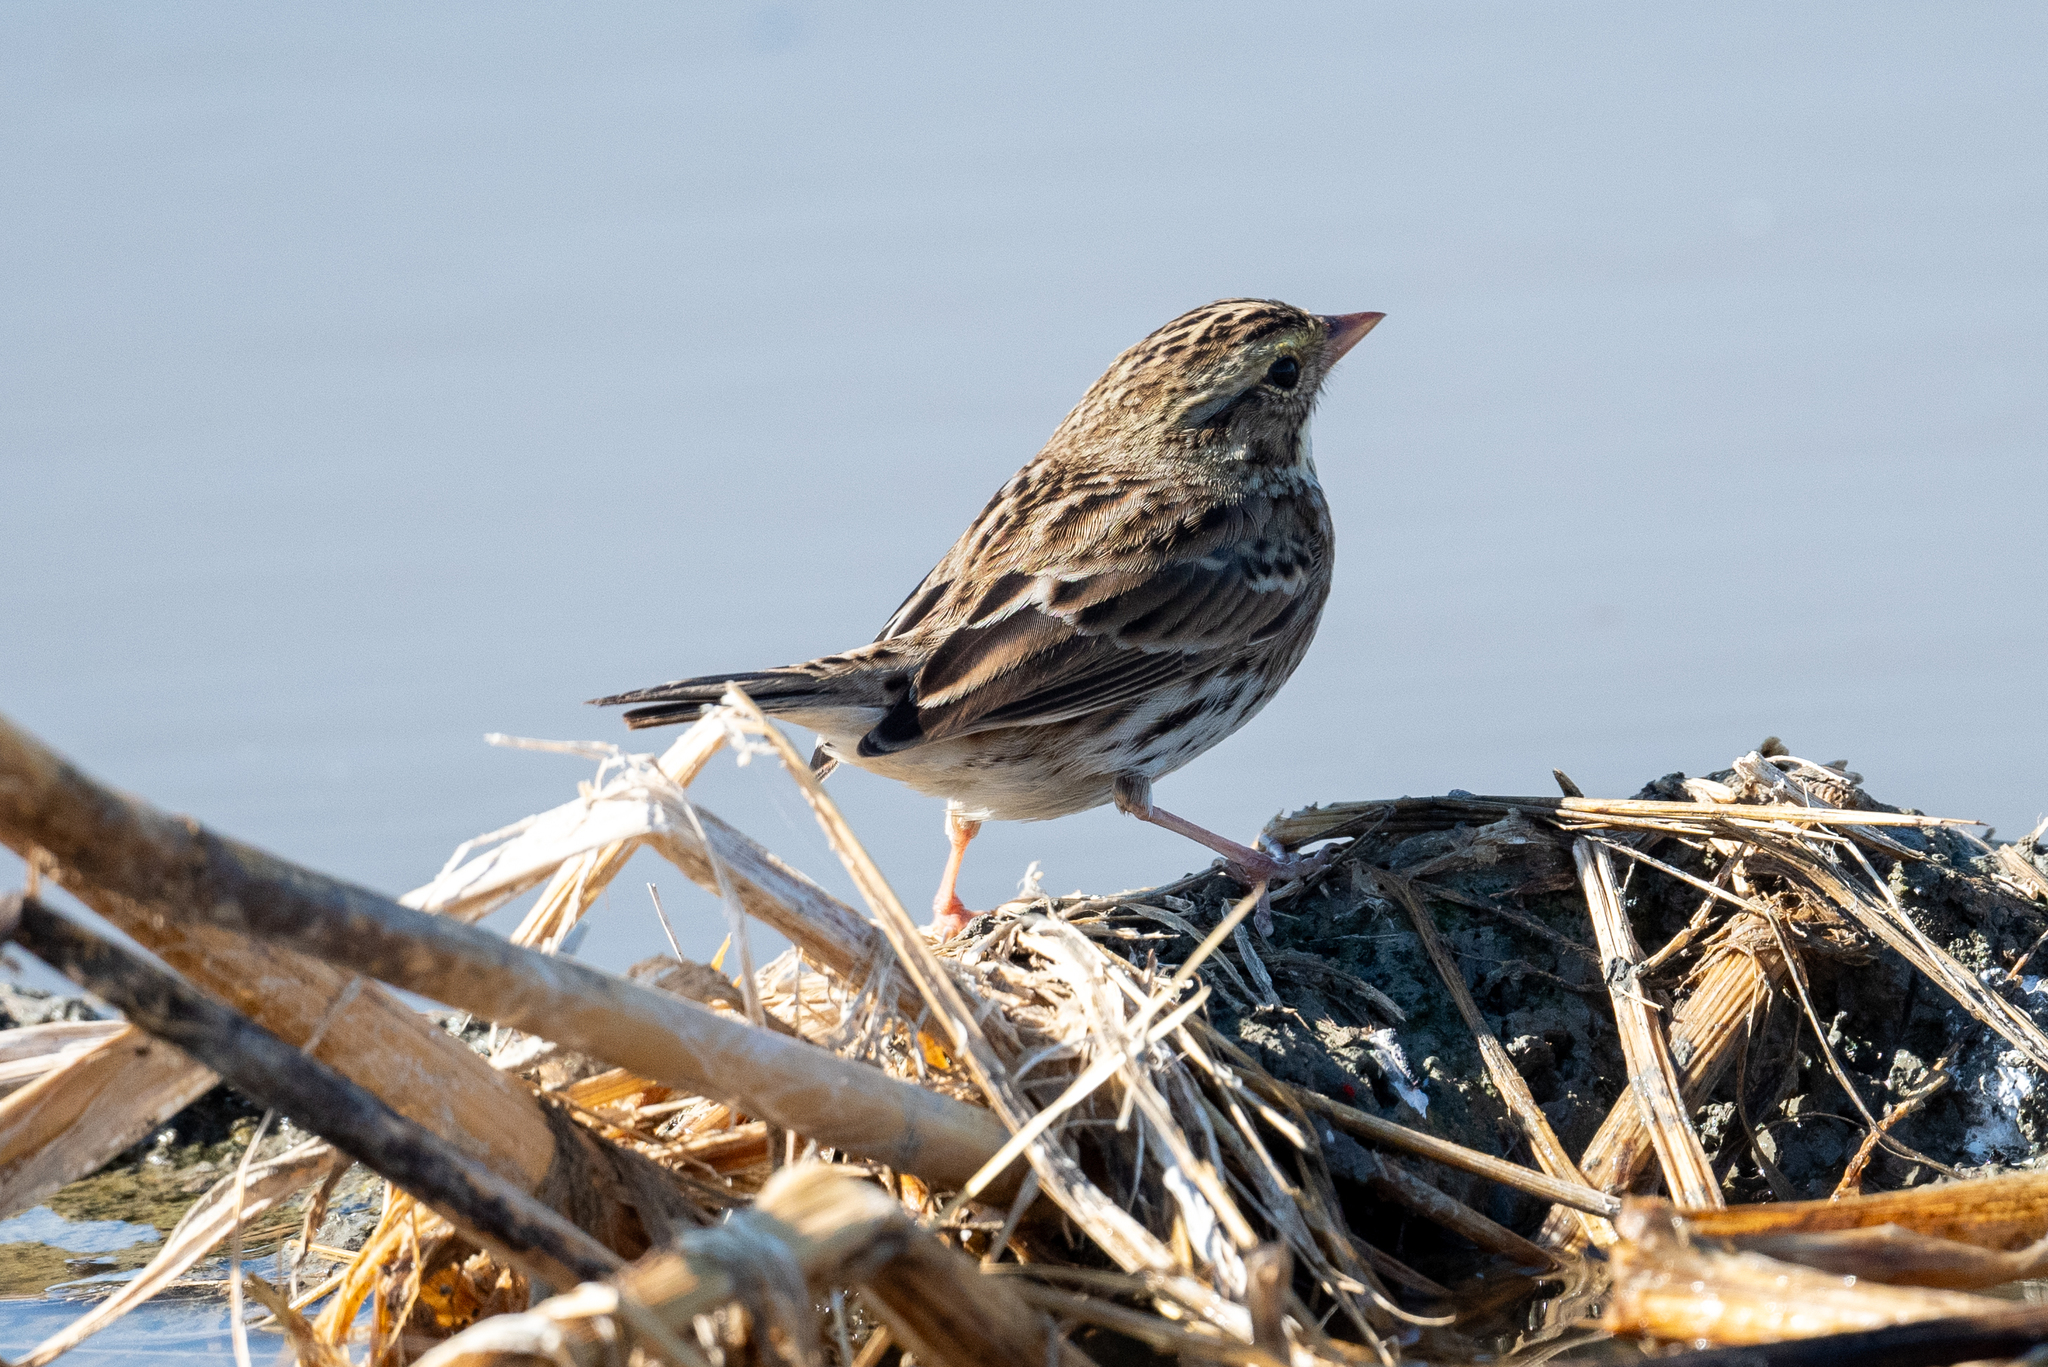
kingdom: Animalia
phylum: Chordata
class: Aves
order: Passeriformes
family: Passerellidae
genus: Passerculus
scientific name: Passerculus sandwichensis
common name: Savannah sparrow
